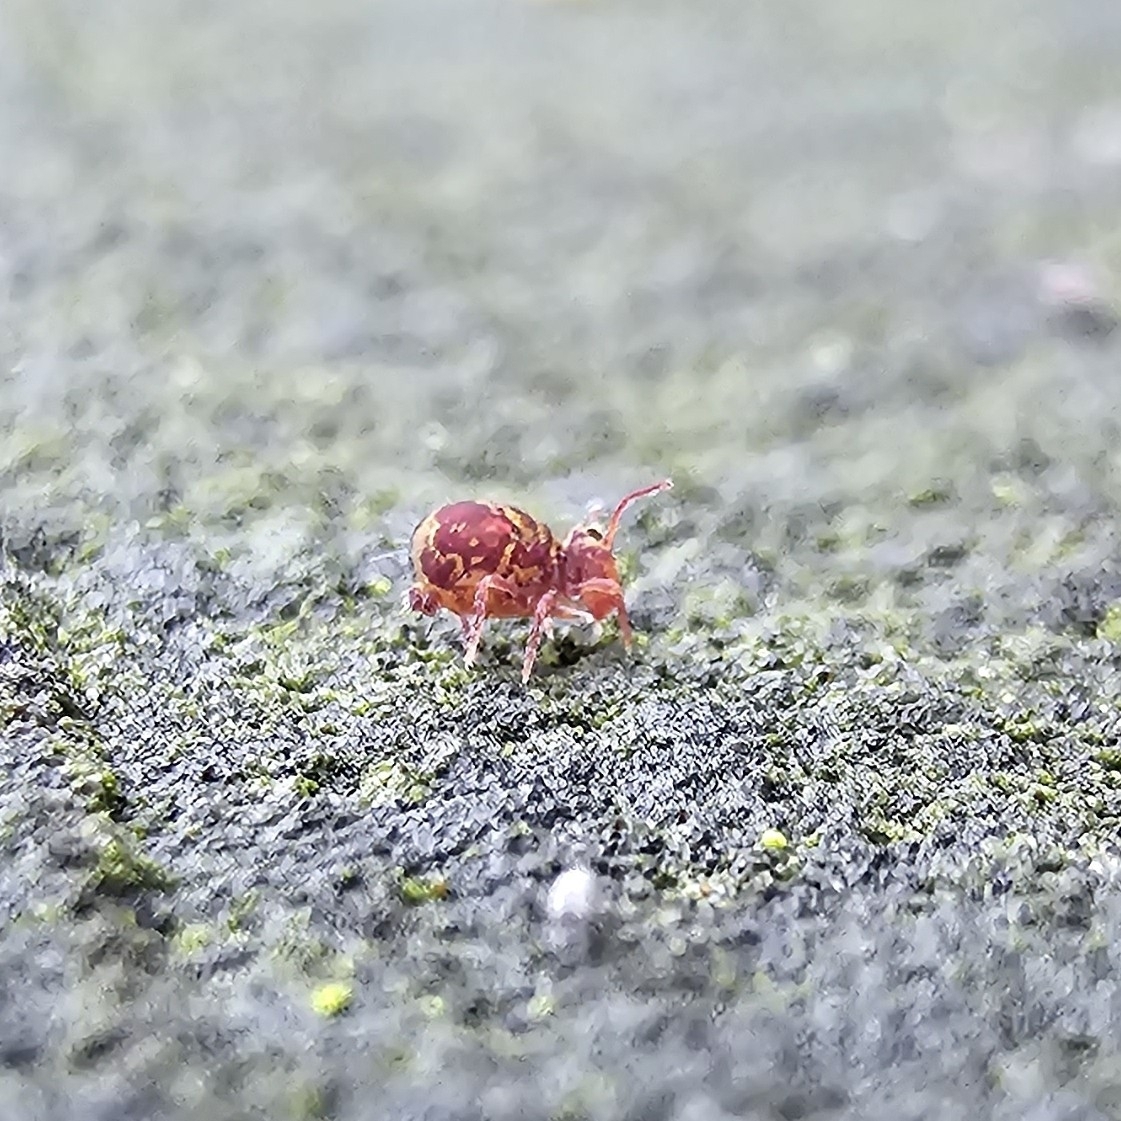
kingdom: Animalia
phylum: Arthropoda
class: Collembola
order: Symphypleona
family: Dicyrtomidae
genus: Dicyrtomina
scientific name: Dicyrtomina ornata
